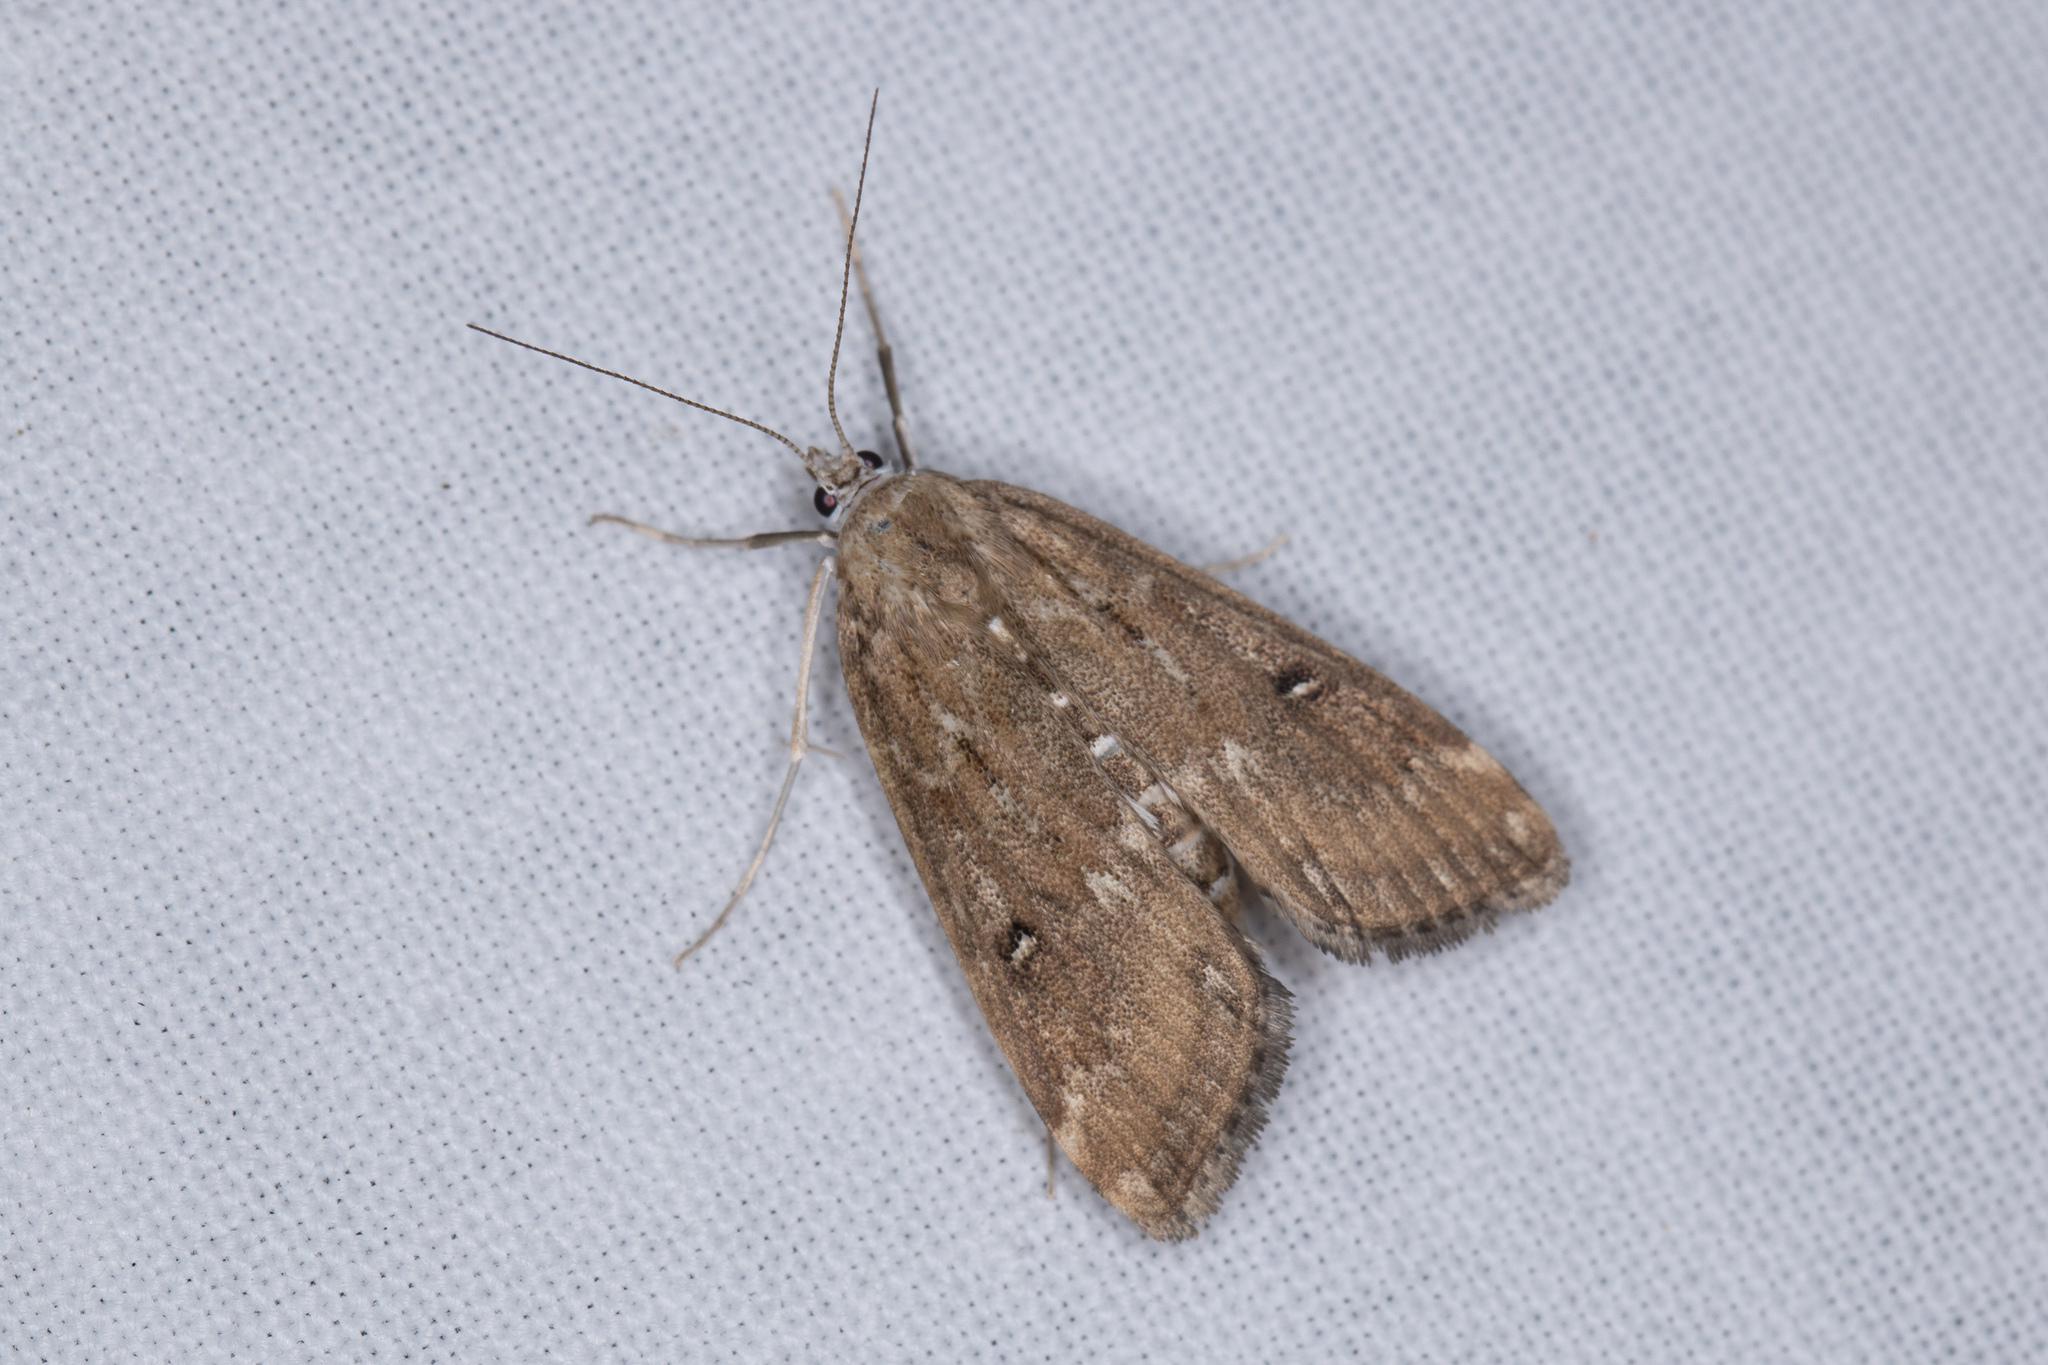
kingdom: Animalia
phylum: Arthropoda
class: Insecta
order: Lepidoptera
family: Crambidae
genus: Parapoynx
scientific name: Parapoynx stratiotata
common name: Ringed china-mark
